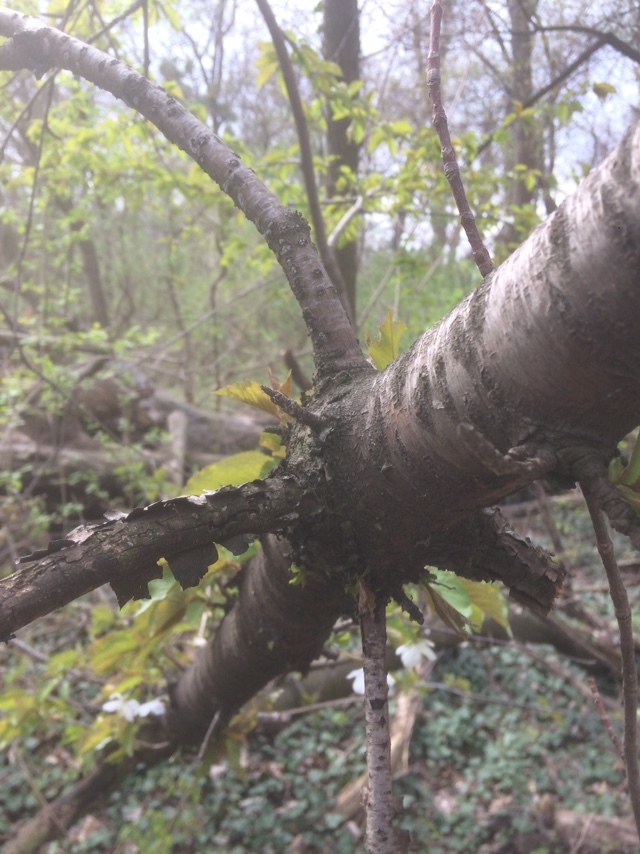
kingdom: Plantae
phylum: Tracheophyta
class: Magnoliopsida
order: Rosales
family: Rosaceae
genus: Prunus
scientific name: Prunus avium
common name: Sweet cherry
